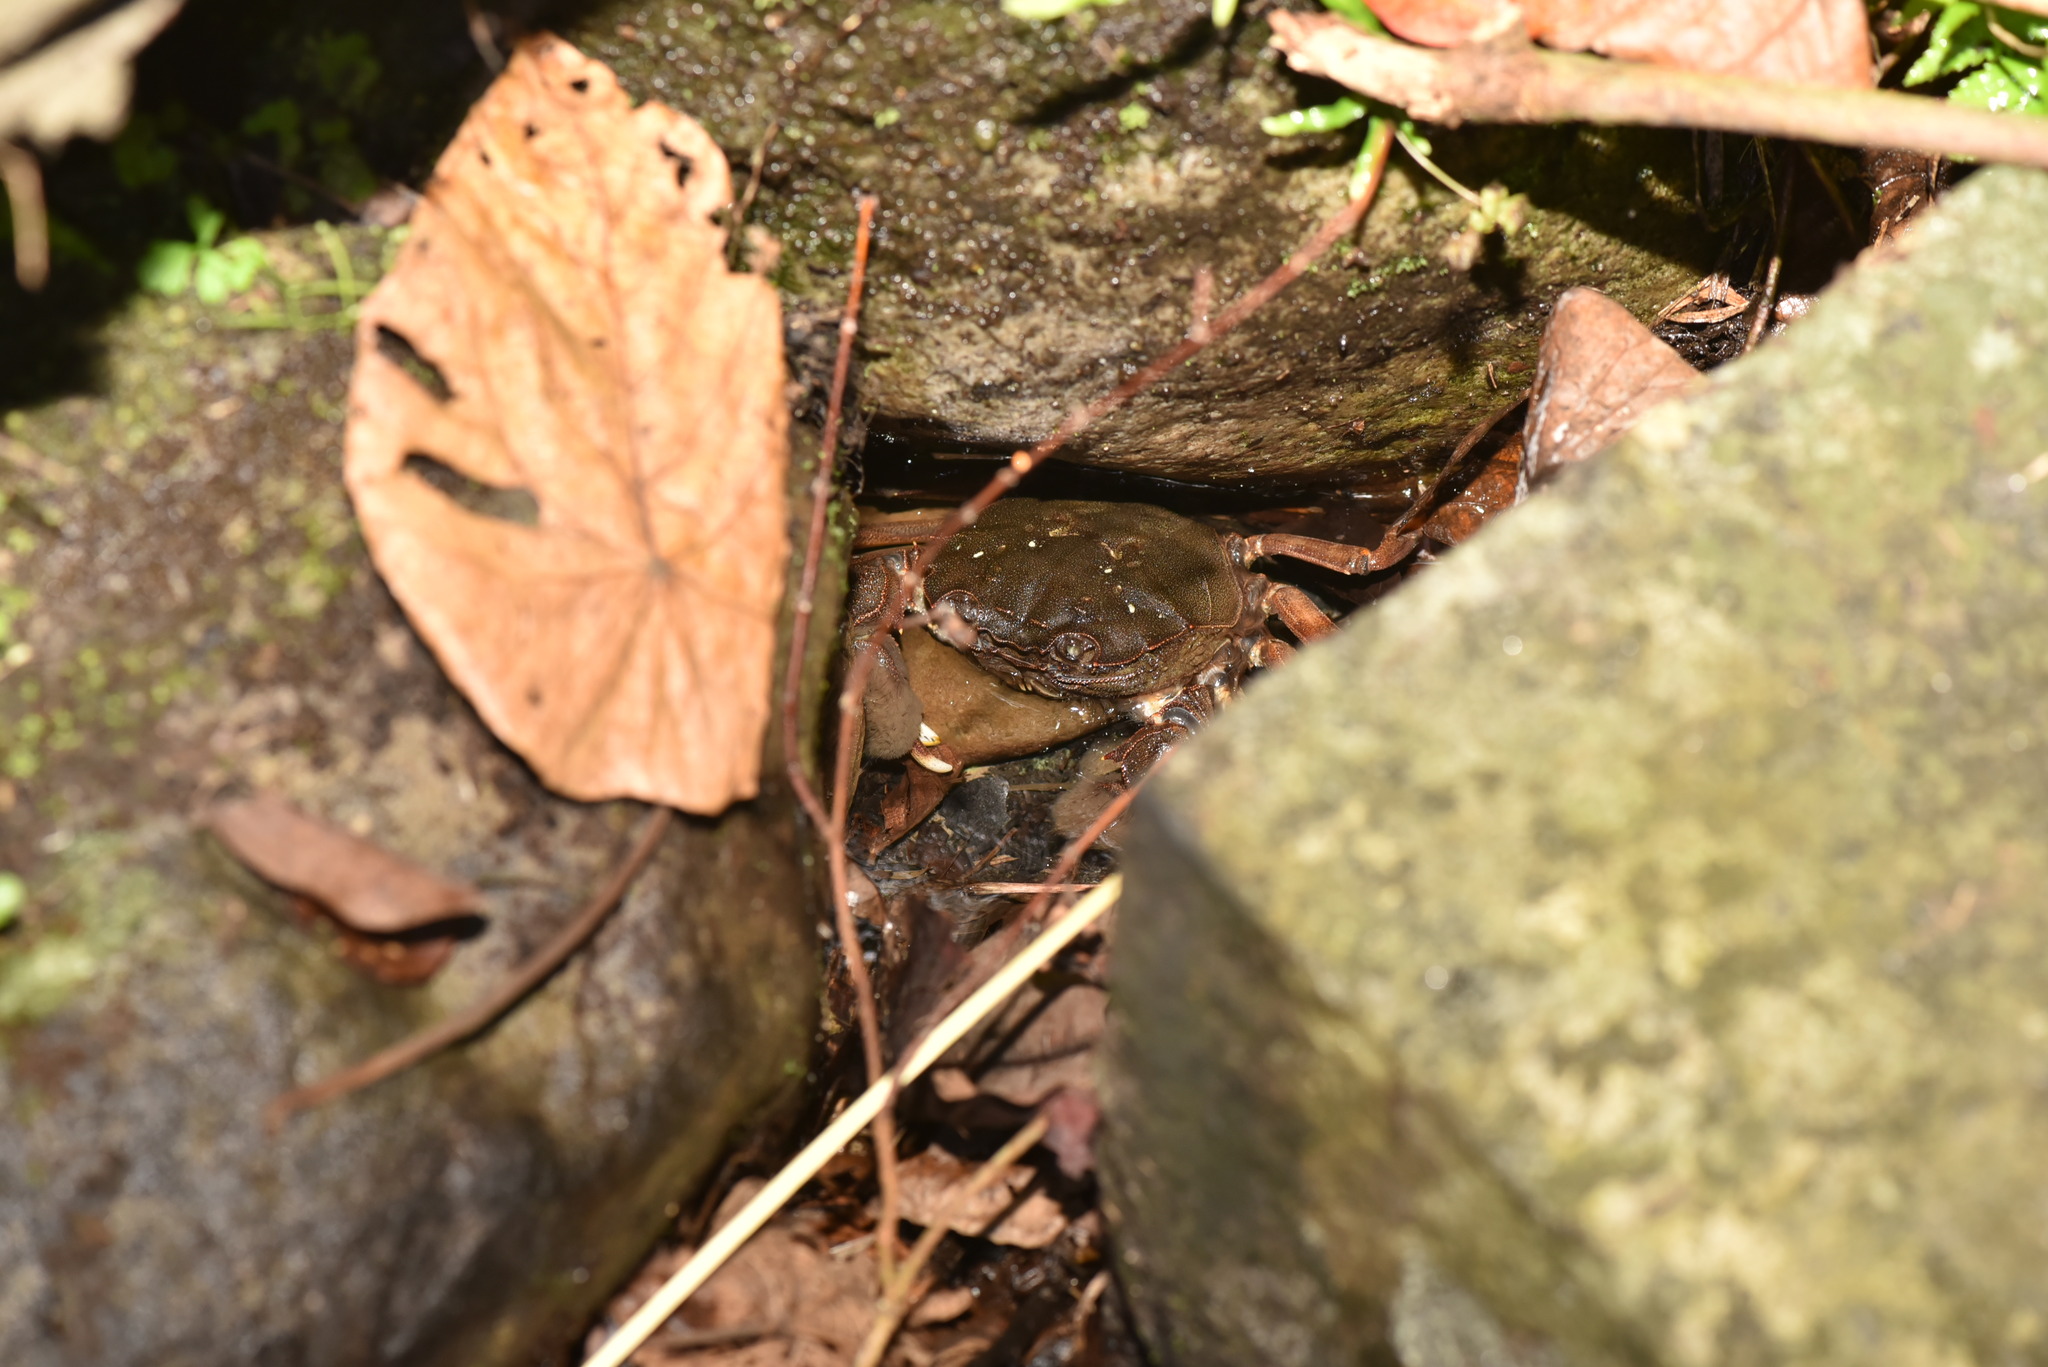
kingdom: Animalia
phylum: Arthropoda
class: Malacostraca
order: Decapoda
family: Varunidae
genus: Eriocheir
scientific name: Eriocheir hepuensis
